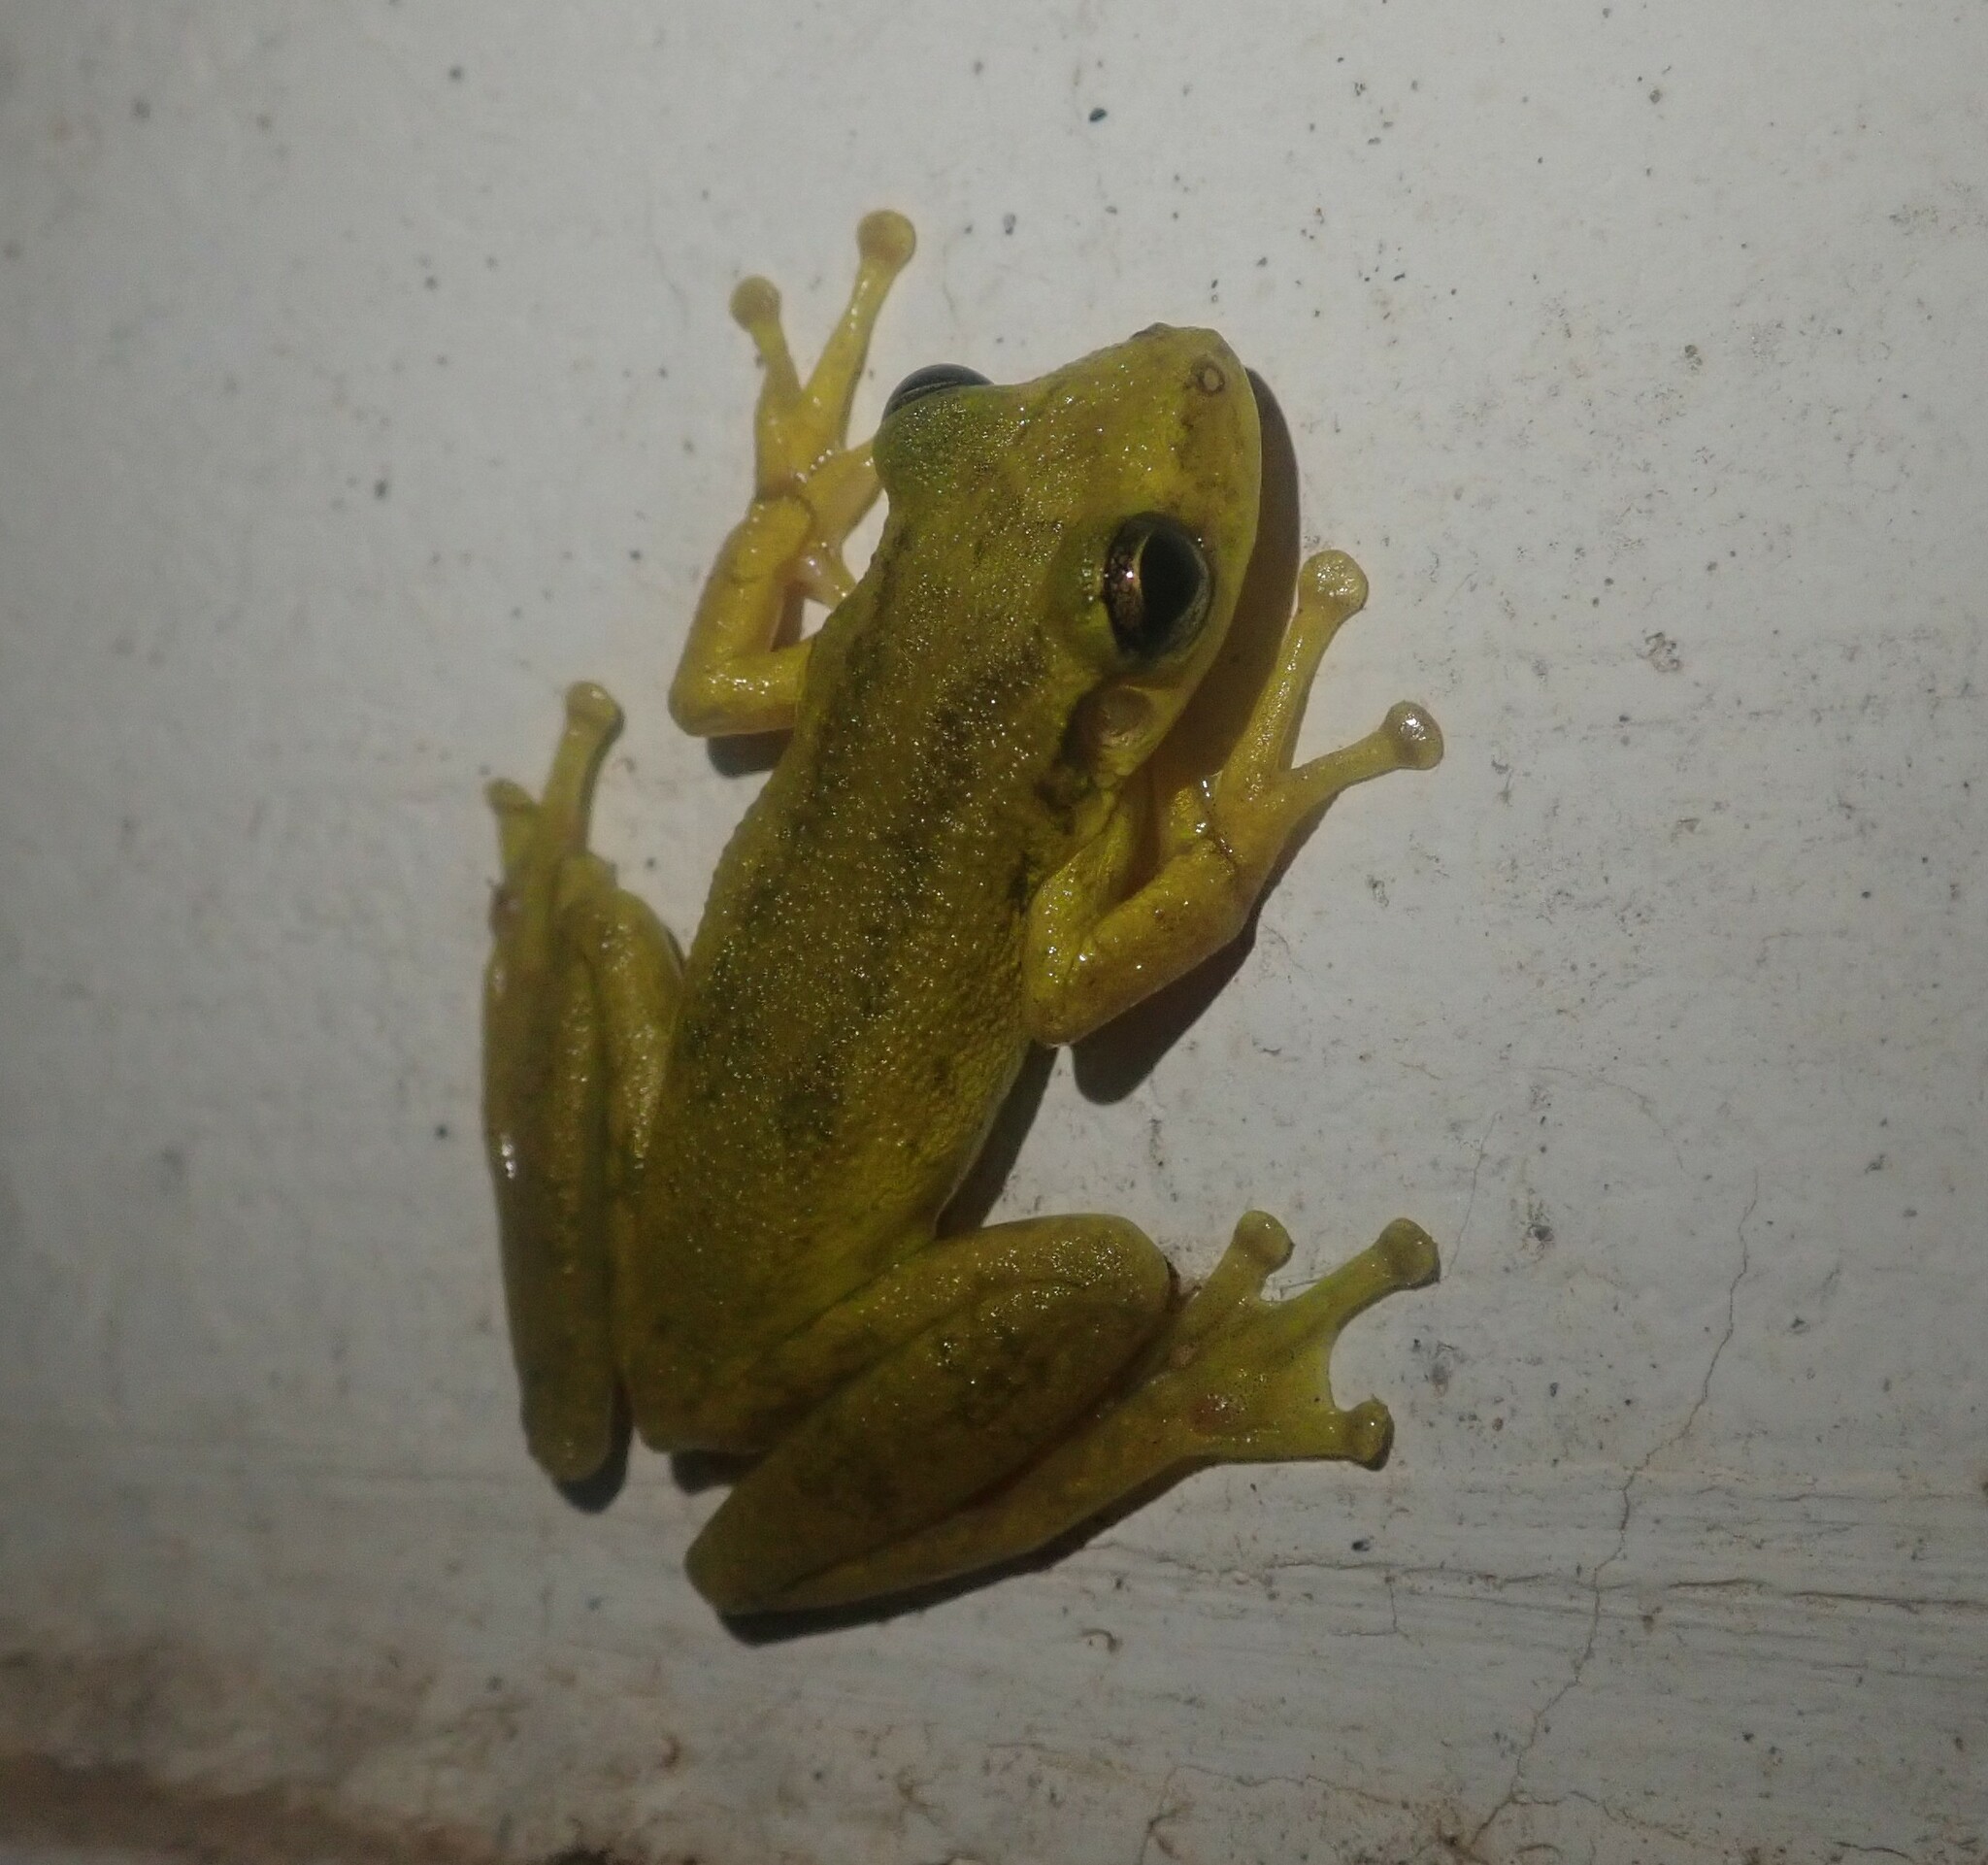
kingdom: Animalia
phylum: Chordata
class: Amphibia
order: Anura
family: Hylidae
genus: Scinax
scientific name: Scinax ruber
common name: Red snouted treefrog
